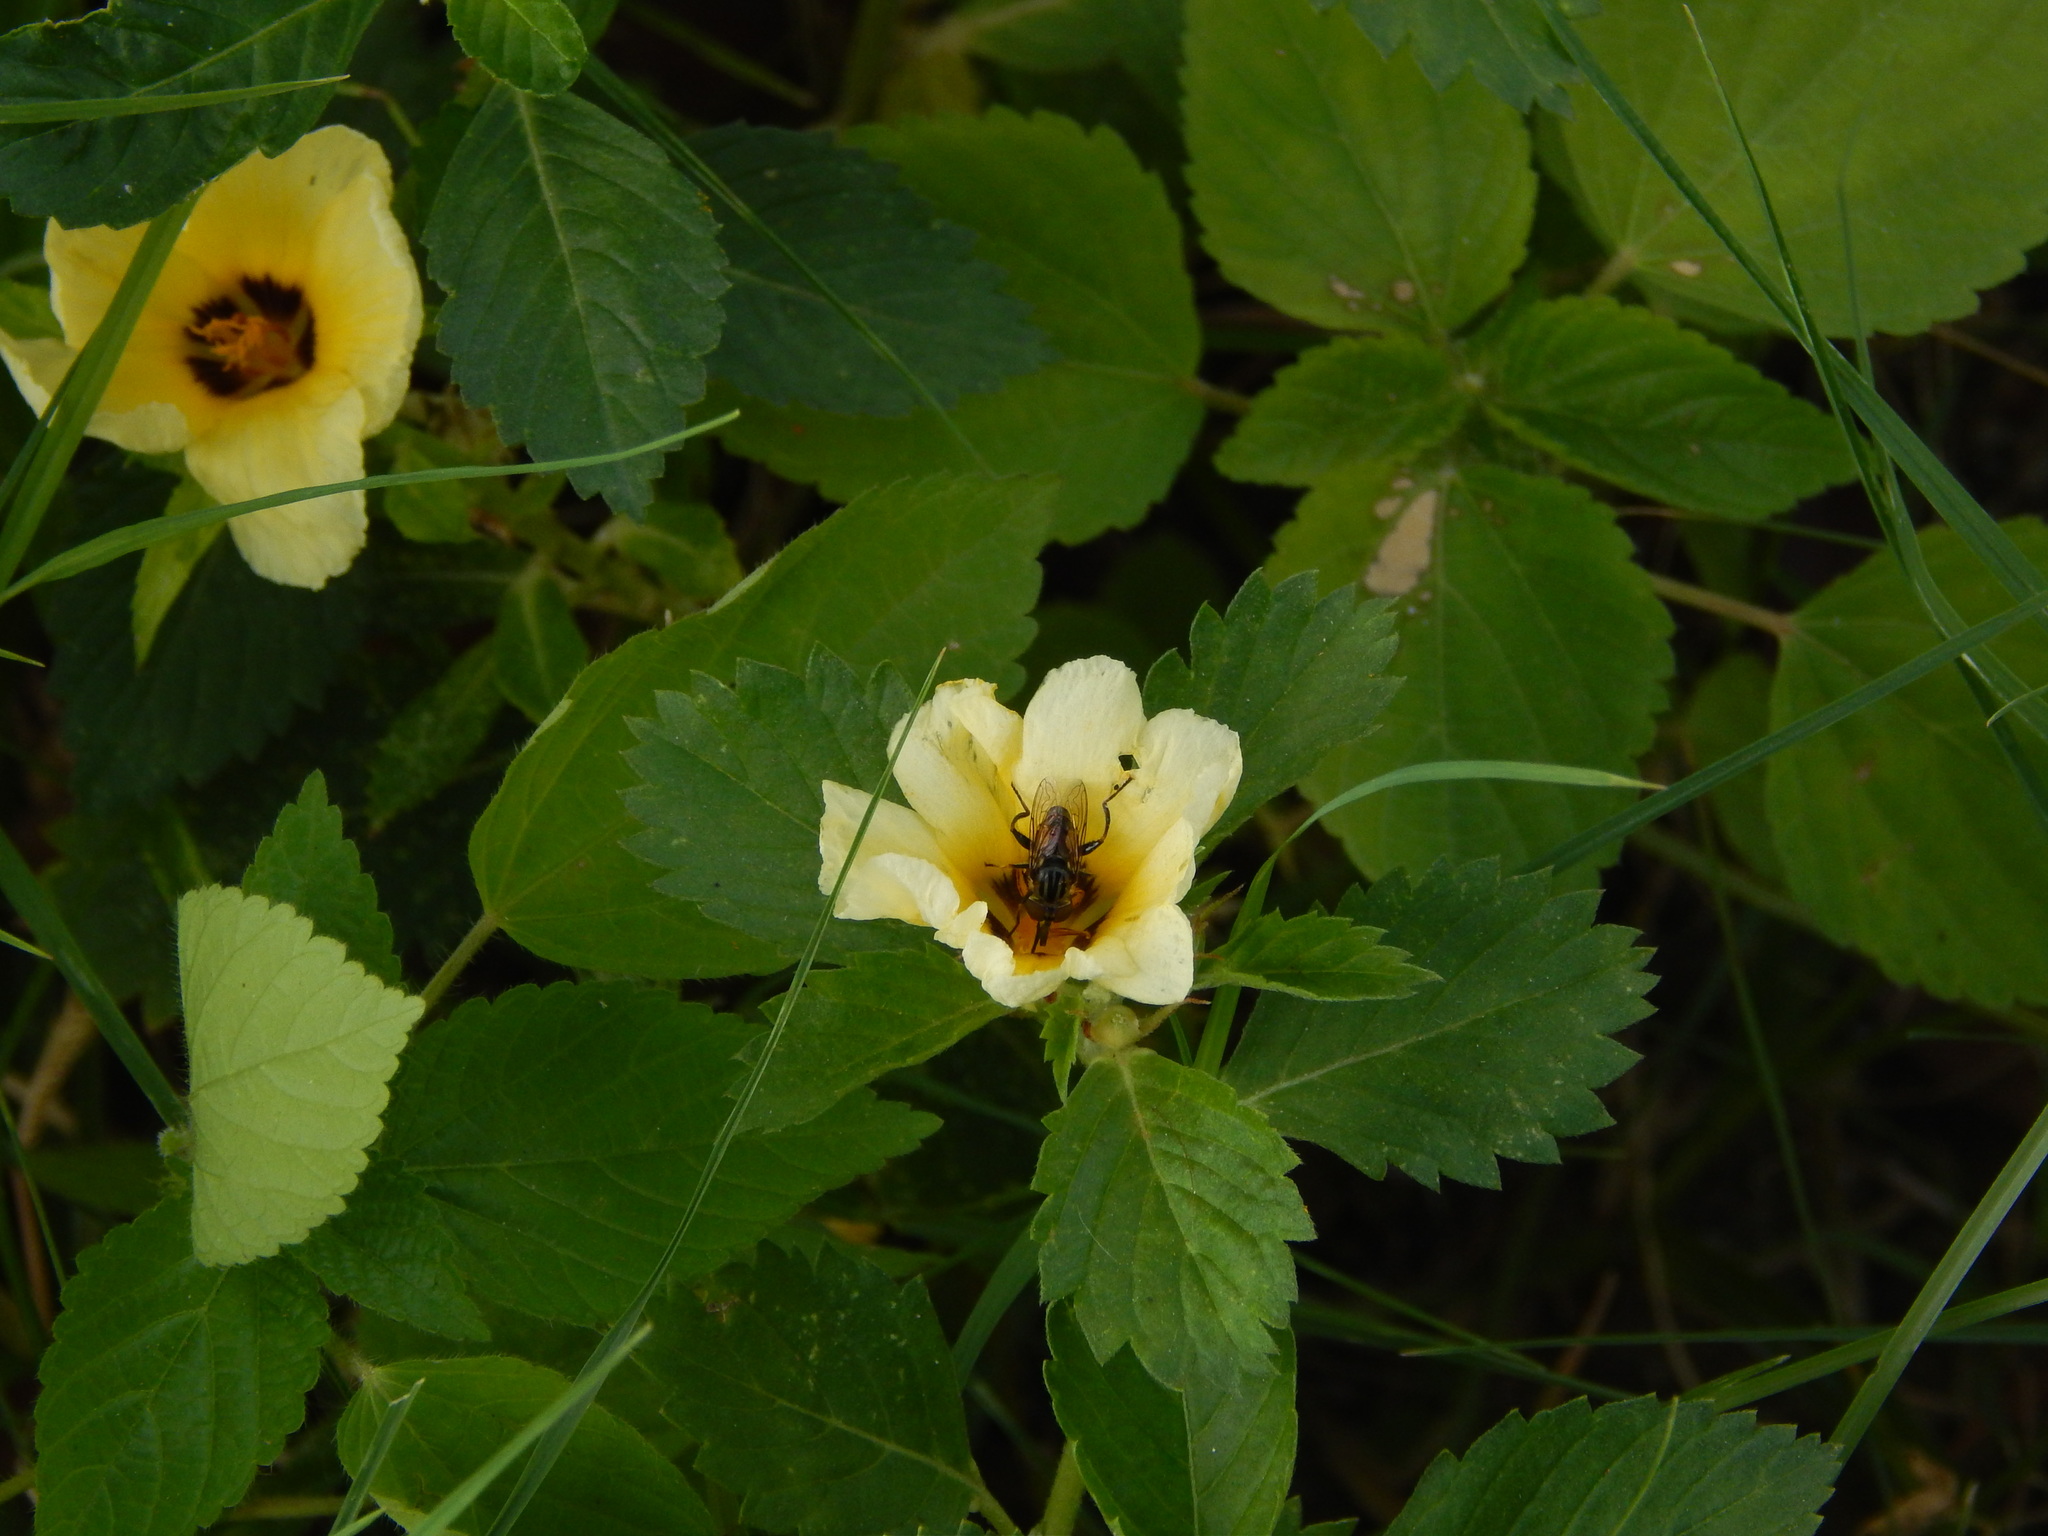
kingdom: Animalia
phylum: Arthropoda
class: Insecta
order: Diptera
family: Syrphidae
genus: Lycastrirhyncha
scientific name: Lycastrirhyncha nitens
